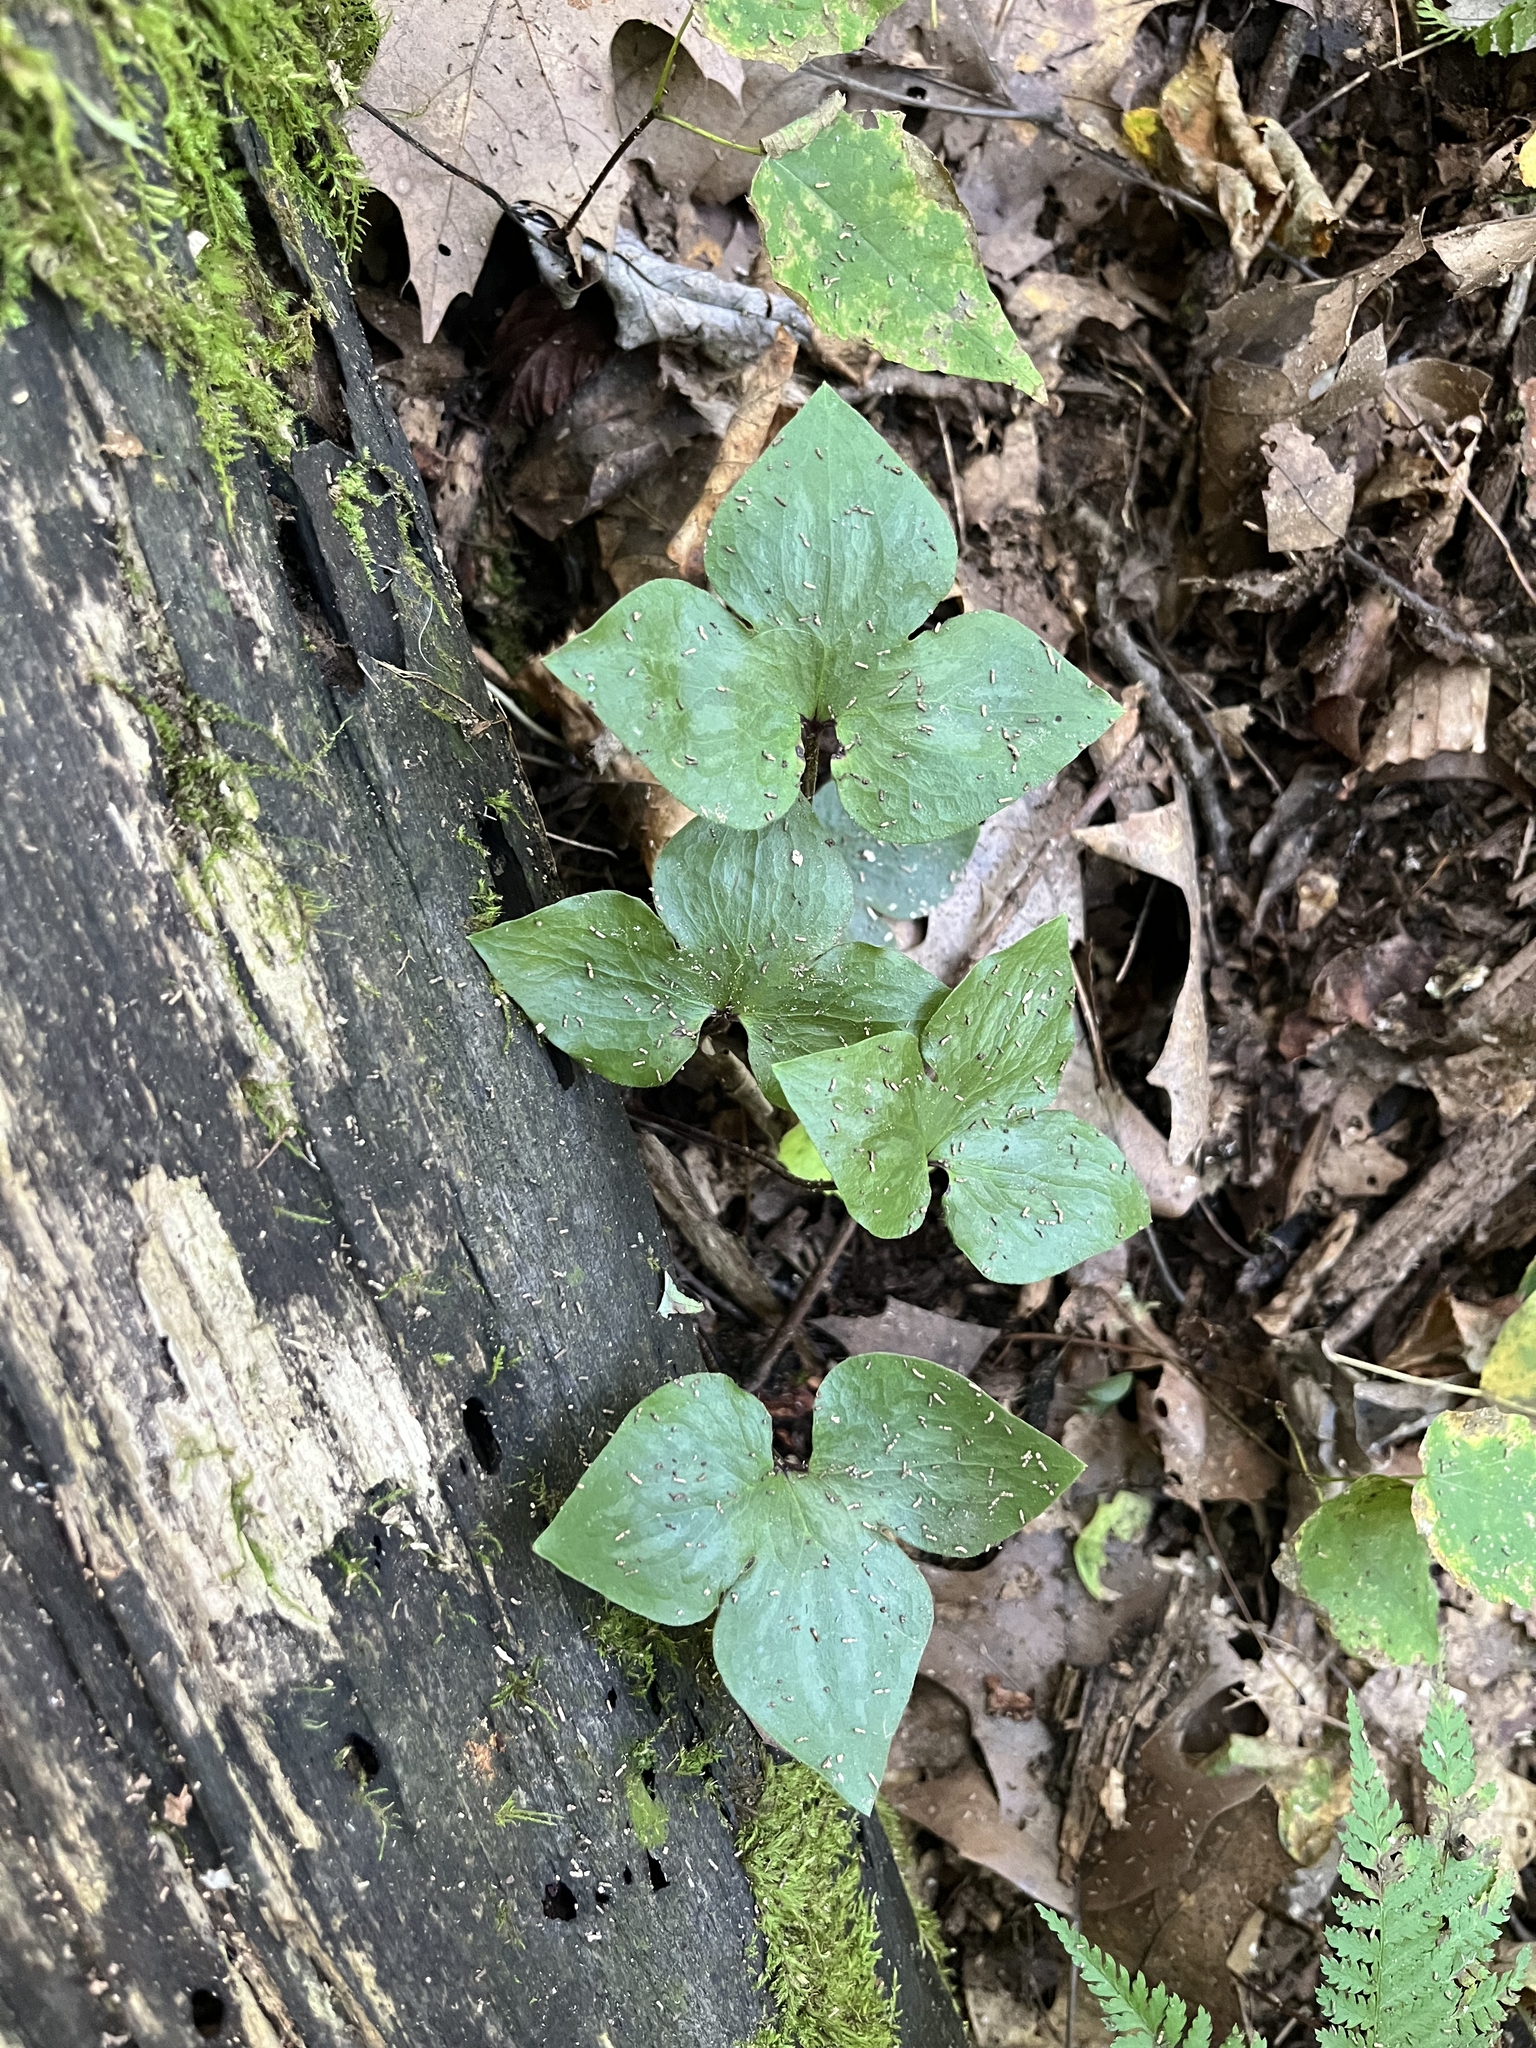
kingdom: Plantae
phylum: Tracheophyta
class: Magnoliopsida
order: Ranunculales
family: Ranunculaceae
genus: Hepatica
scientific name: Hepatica acutiloba
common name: Sharp-lobed hepatica
